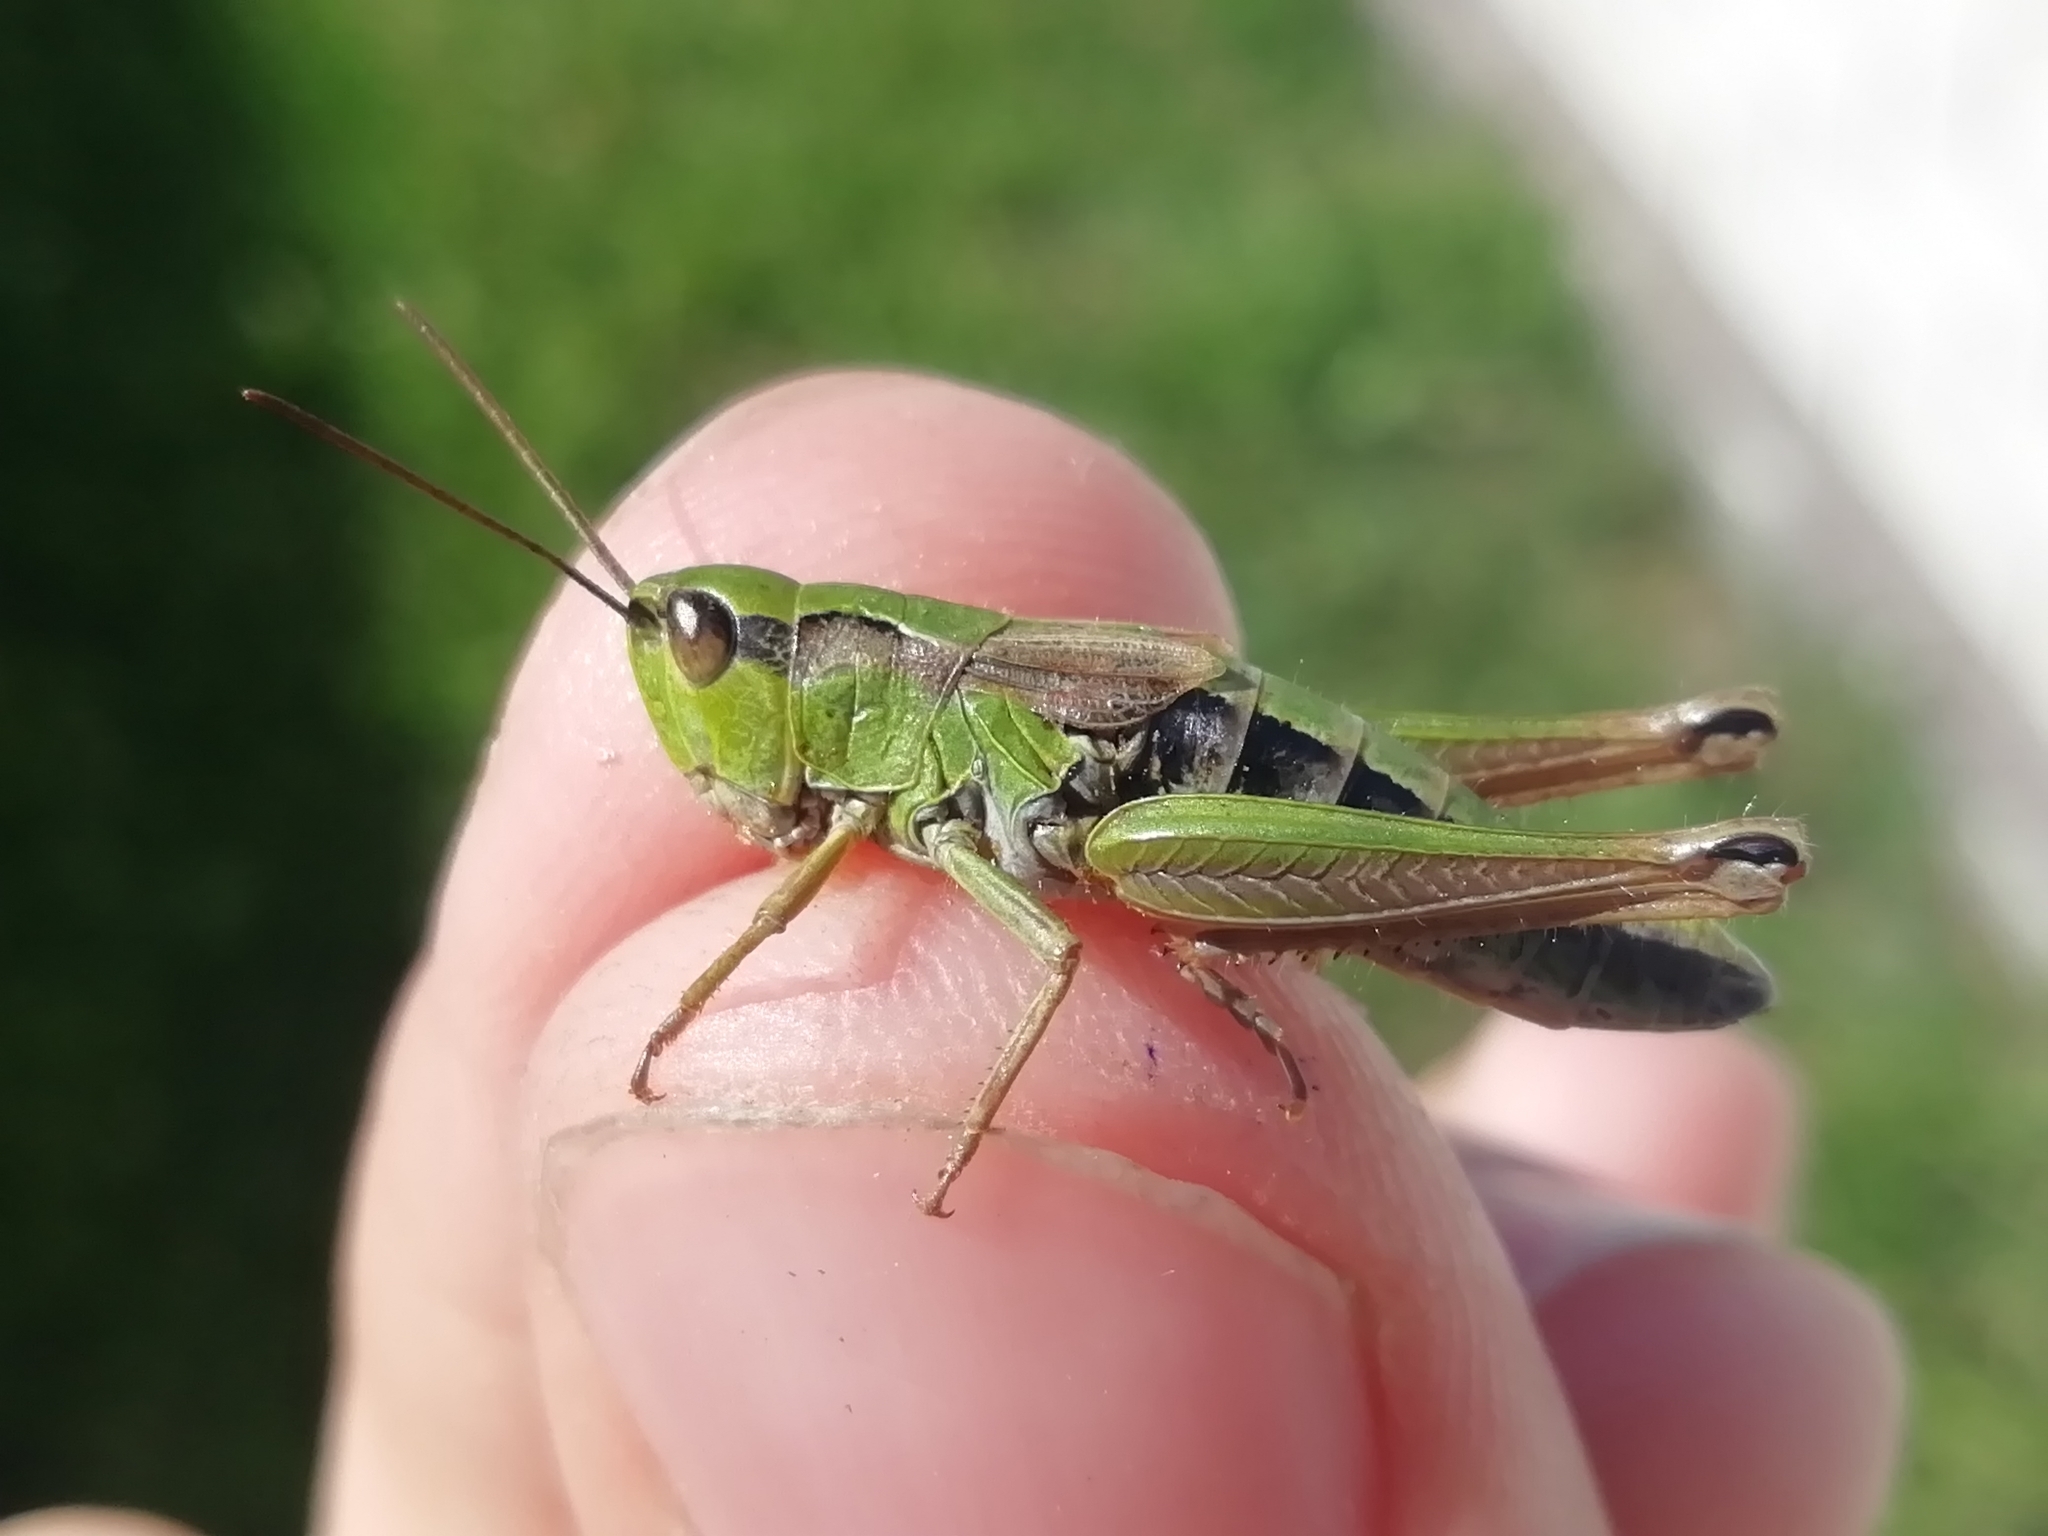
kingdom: Animalia
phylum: Arthropoda
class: Insecta
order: Orthoptera
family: Acrididae
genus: Chorthippus
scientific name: Chorthippus fallax
